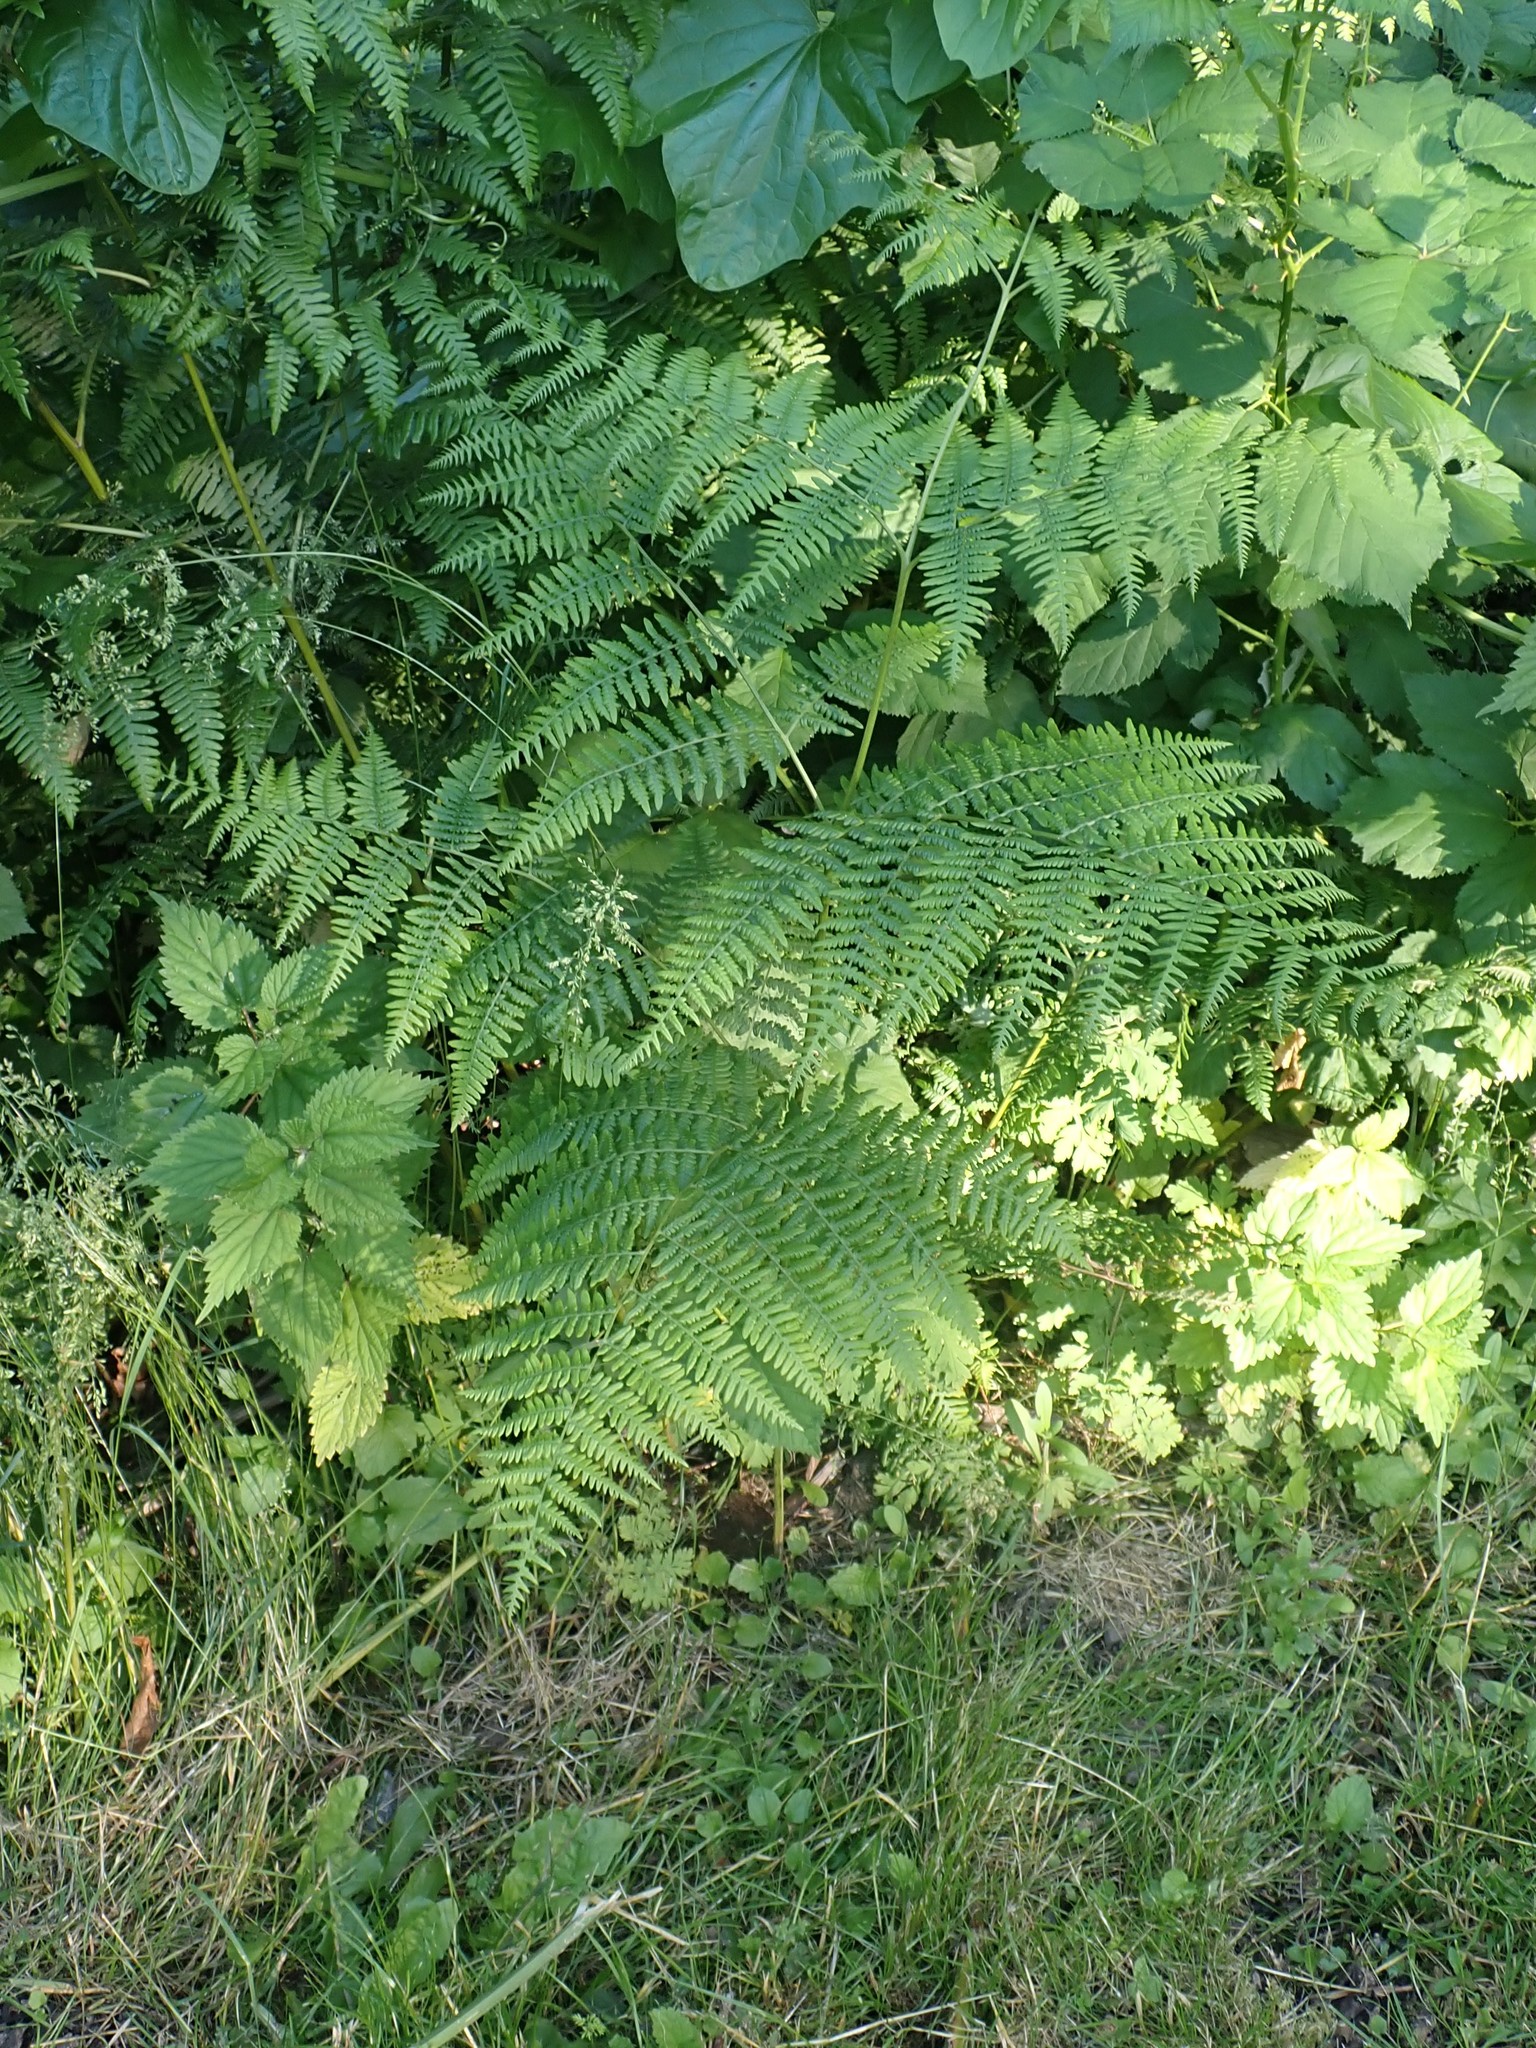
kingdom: Plantae
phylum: Tracheophyta
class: Polypodiopsida
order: Polypodiales
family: Dennstaedtiaceae
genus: Pteridium
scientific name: Pteridium aquilinum
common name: Bracken
